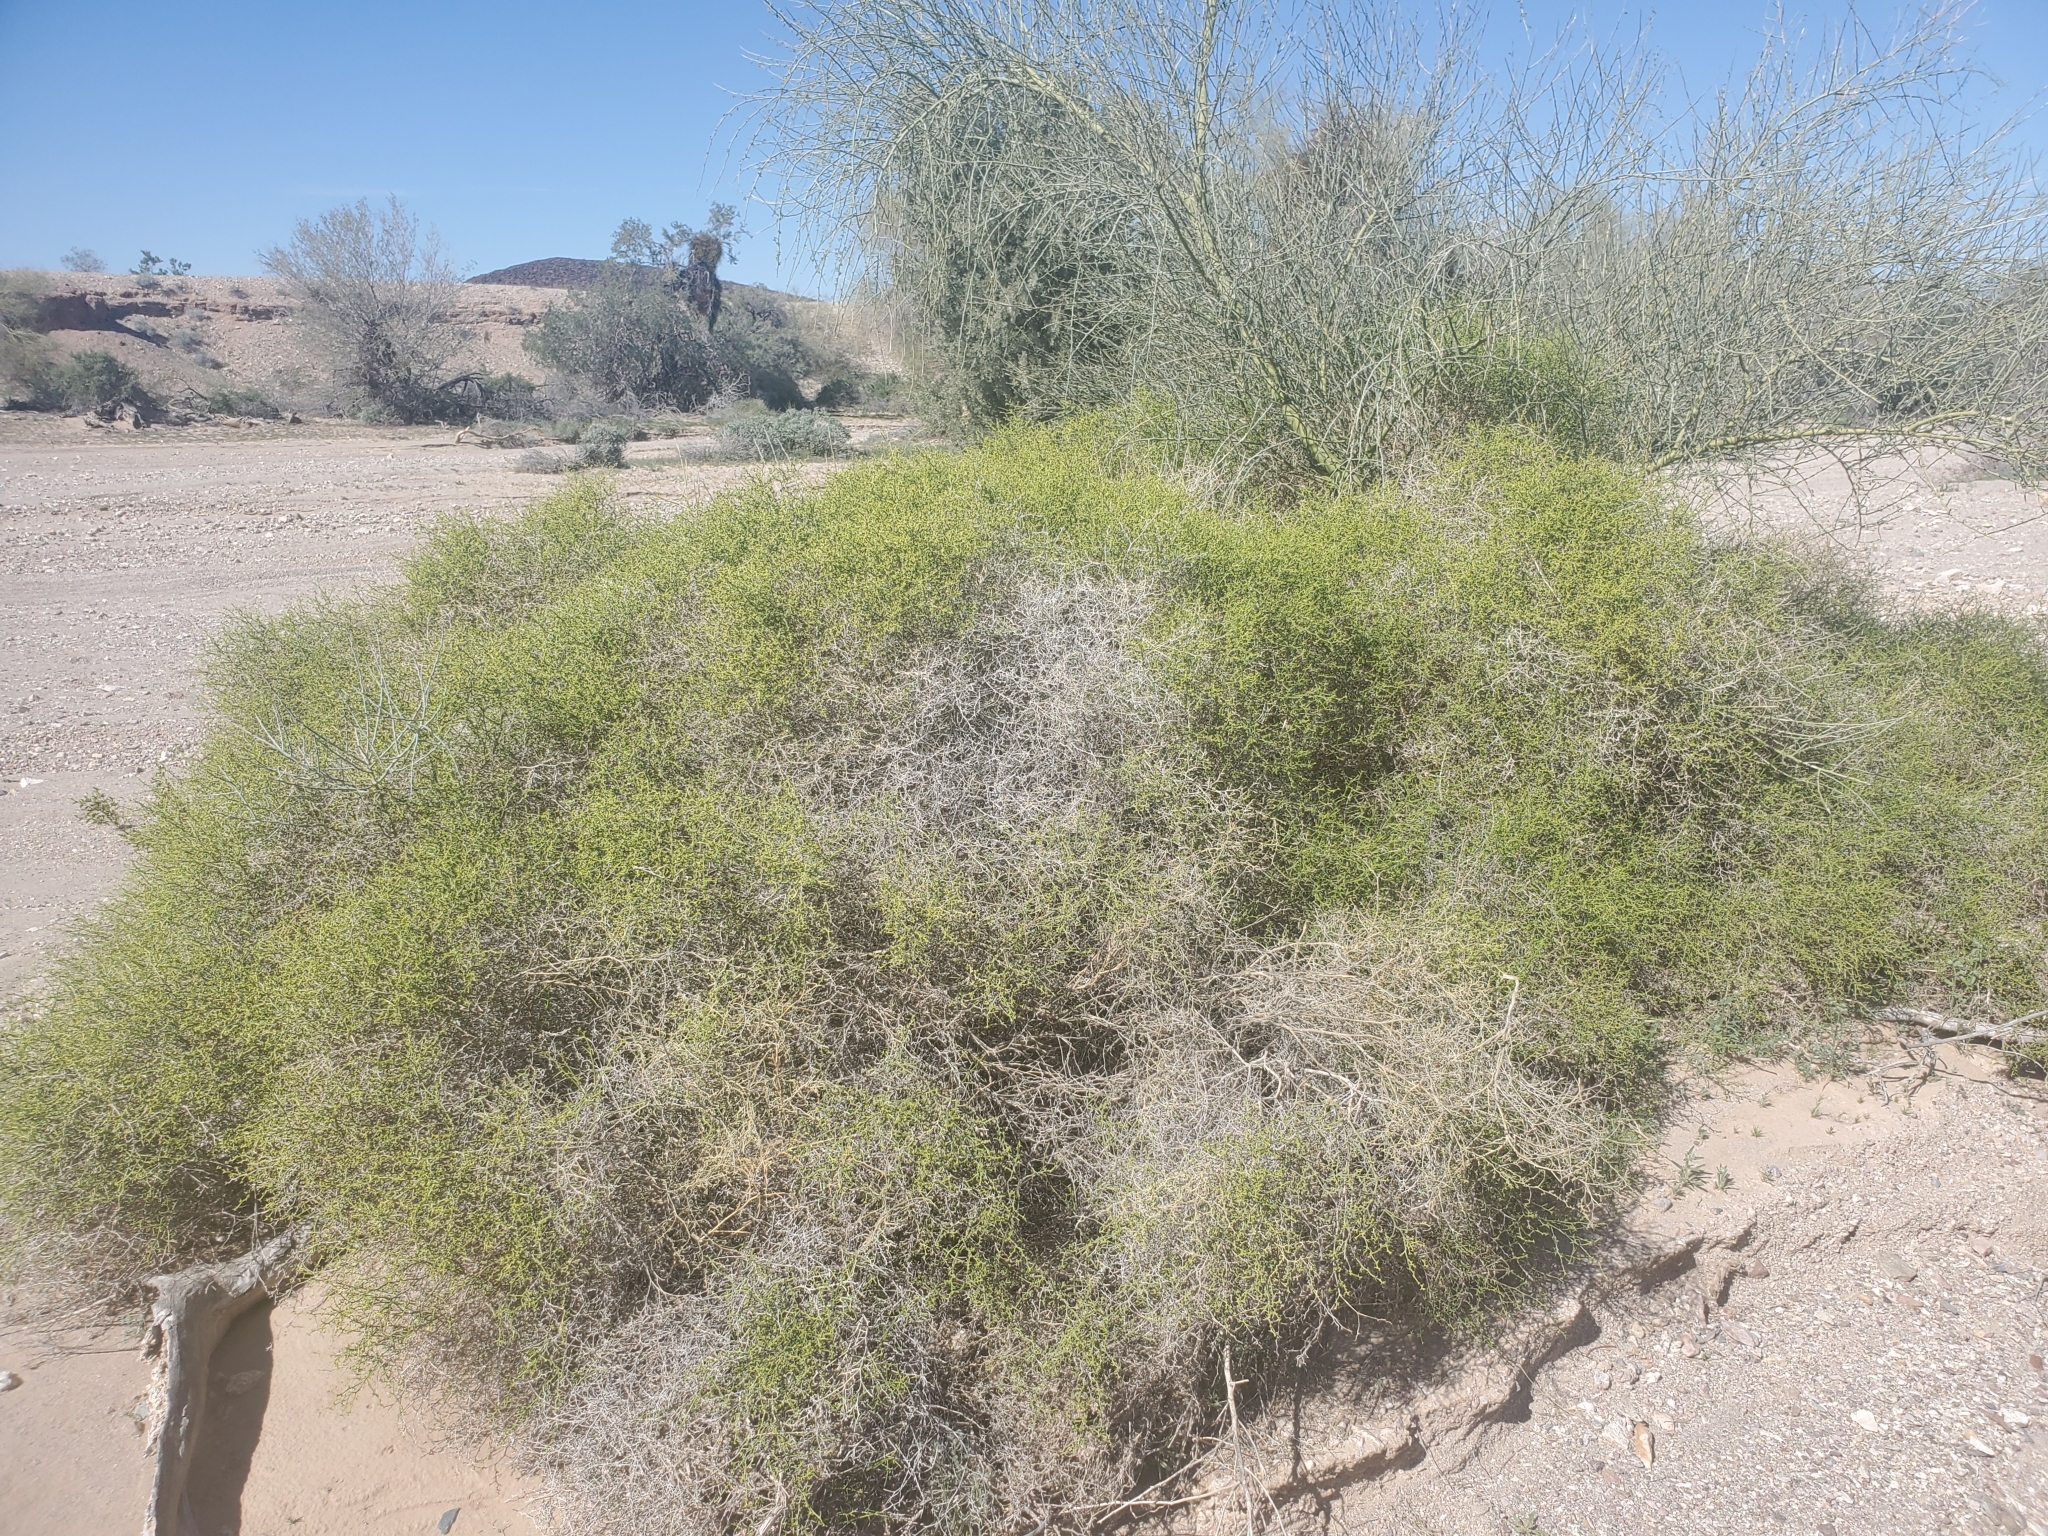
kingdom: Plantae
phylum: Tracheophyta
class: Magnoliopsida
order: Asterales
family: Asteraceae
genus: Ambrosia
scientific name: Ambrosia salsola
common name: Burrobrush
